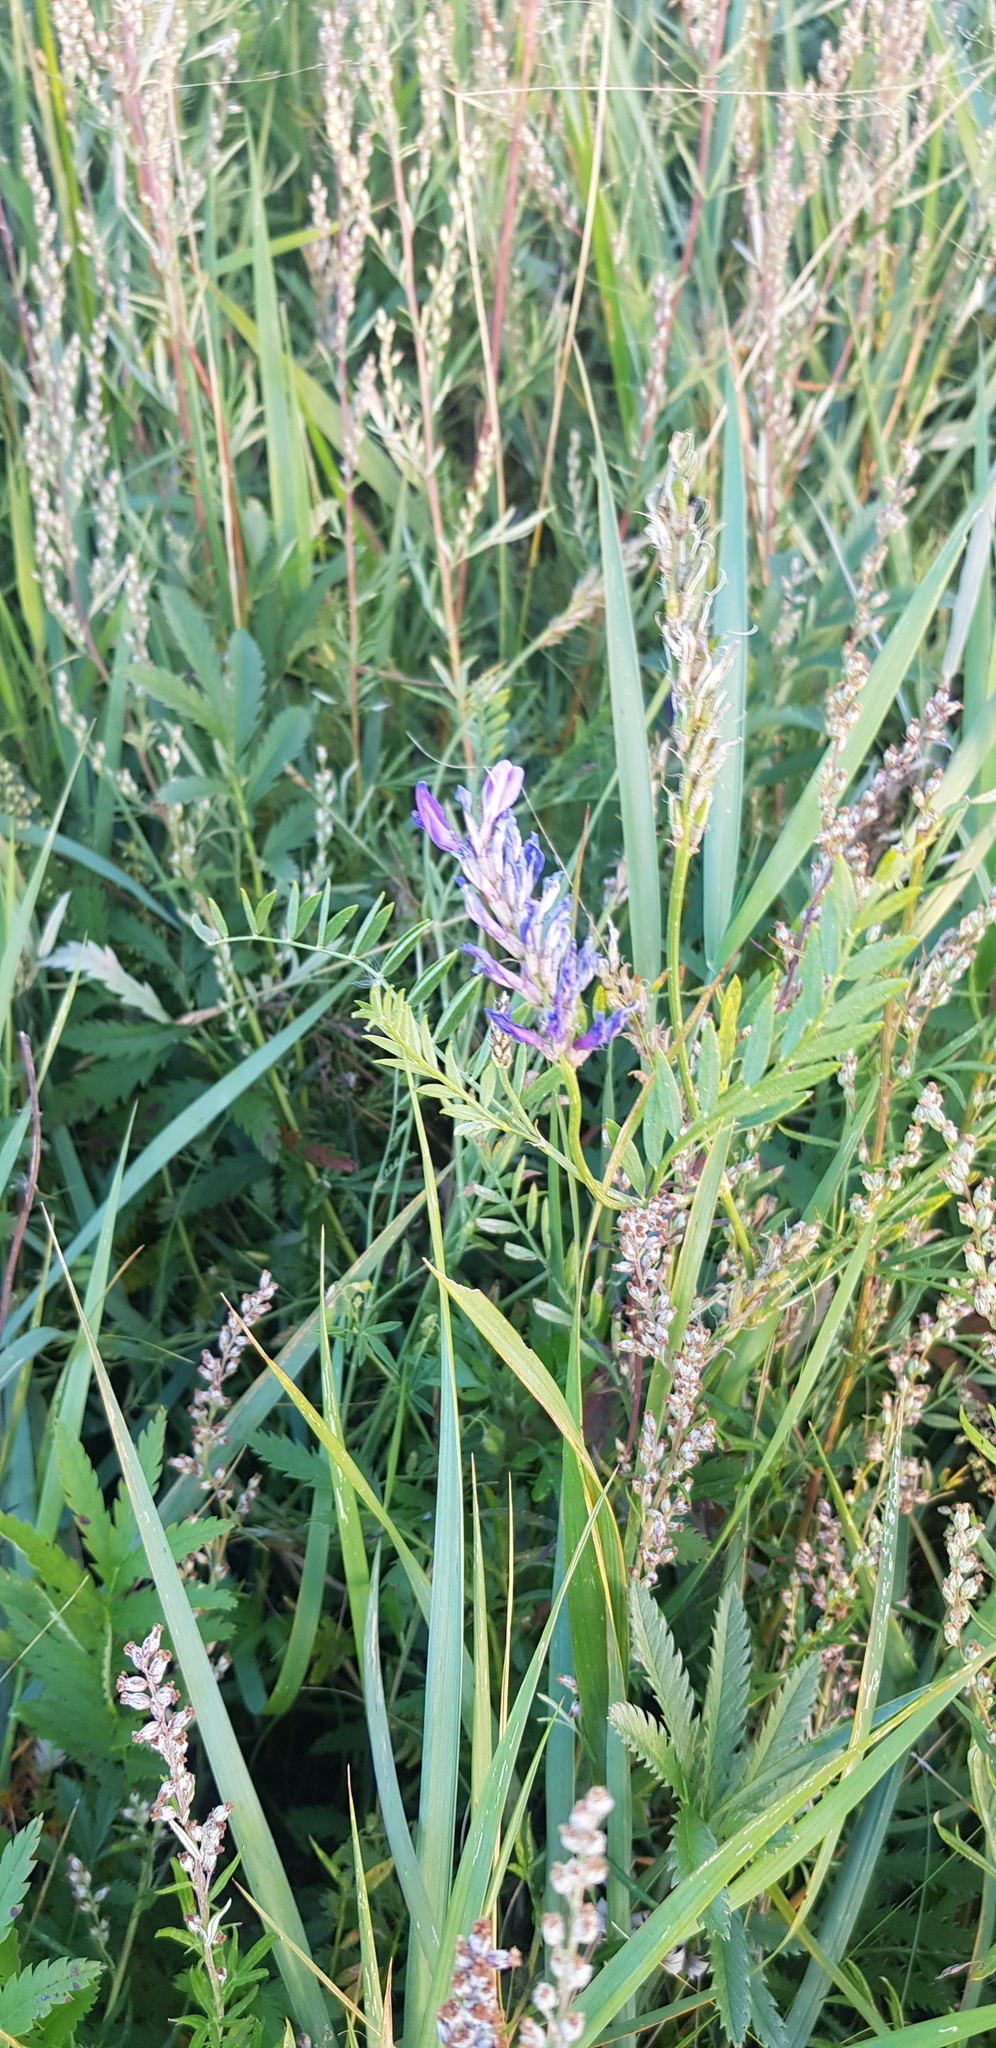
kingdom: Plantae
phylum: Tracheophyta
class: Magnoliopsida
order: Fabales
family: Fabaceae
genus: Astragalus
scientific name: Astragalus laxmannii
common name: Laxmann's milk-vetch
